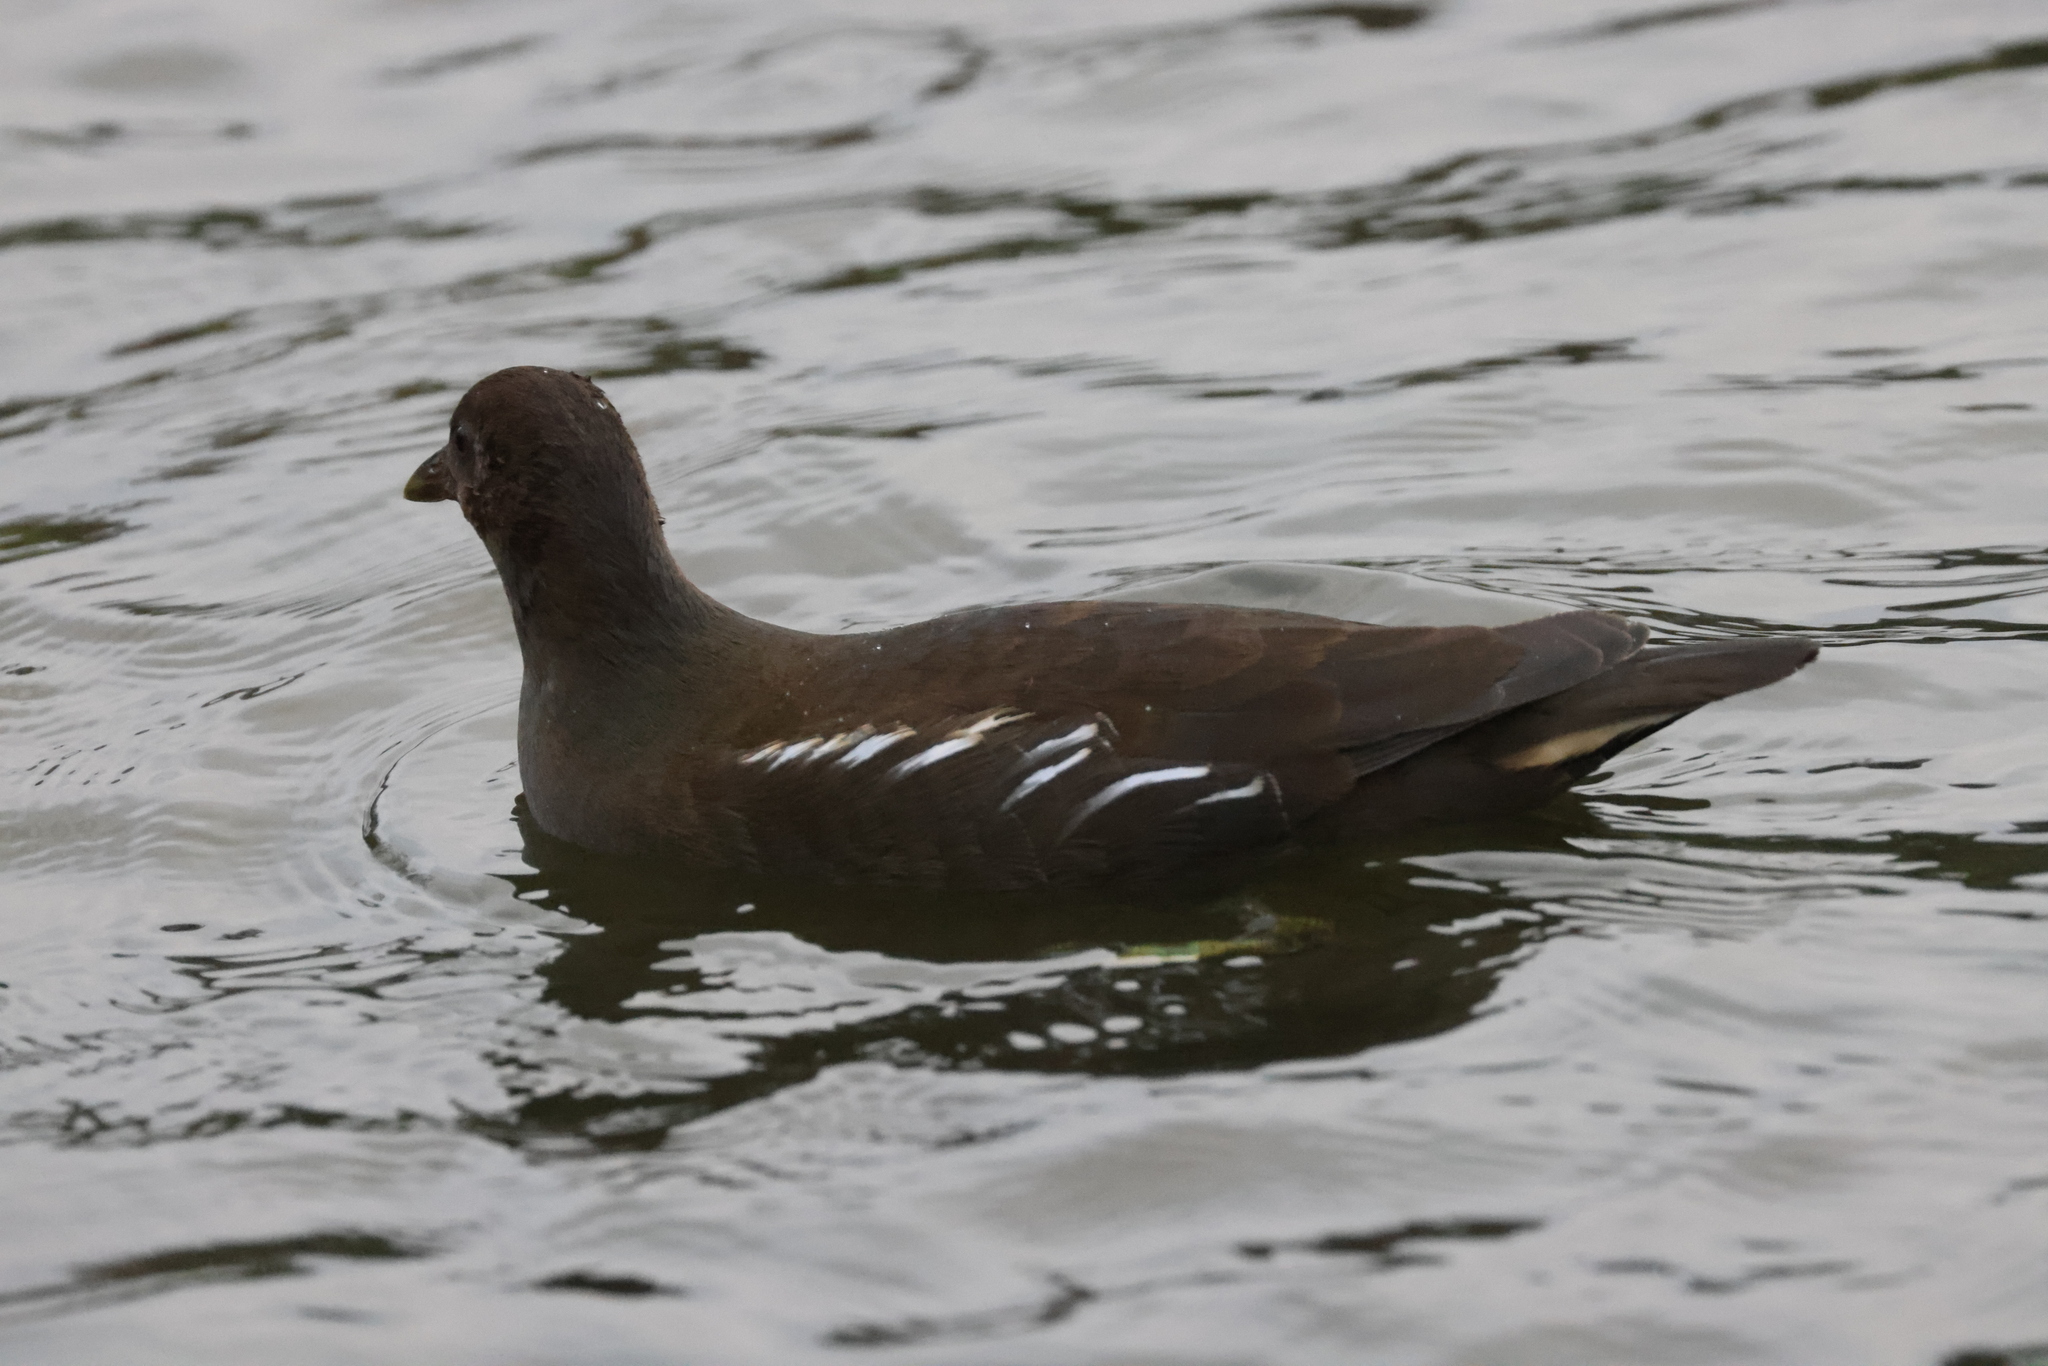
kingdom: Animalia
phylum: Chordata
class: Aves
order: Gruiformes
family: Rallidae
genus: Gallinula
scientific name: Gallinula chloropus
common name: Common moorhen
